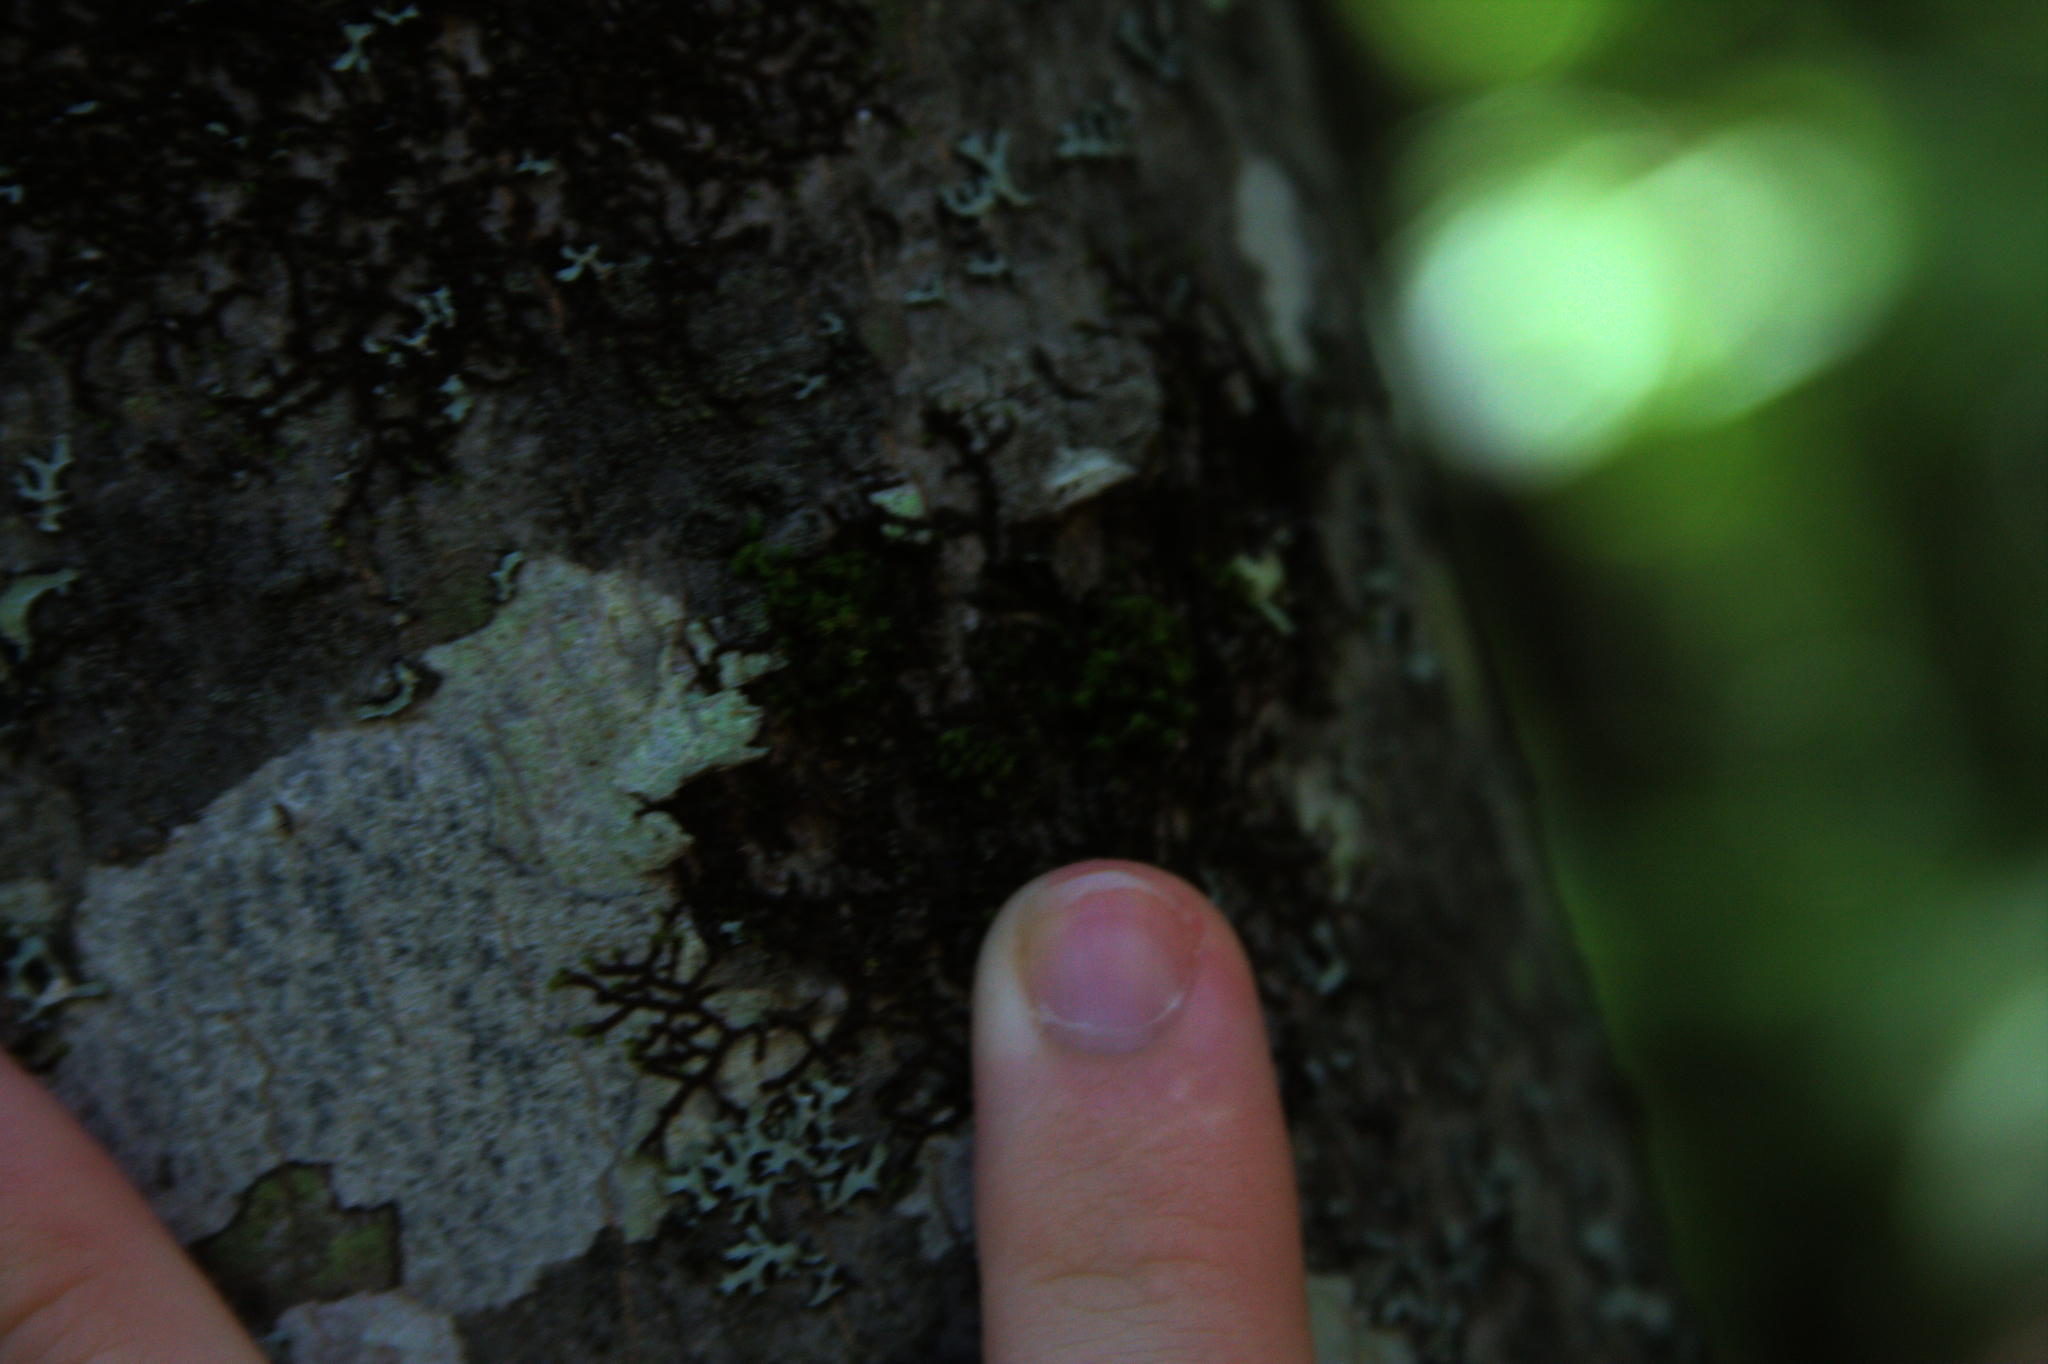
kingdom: Plantae
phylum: Bryophyta
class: Bryopsida
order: Orthotrichales
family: Orthotrichaceae
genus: Ulota
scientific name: Ulota crispa
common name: Crisped pincushion moss
